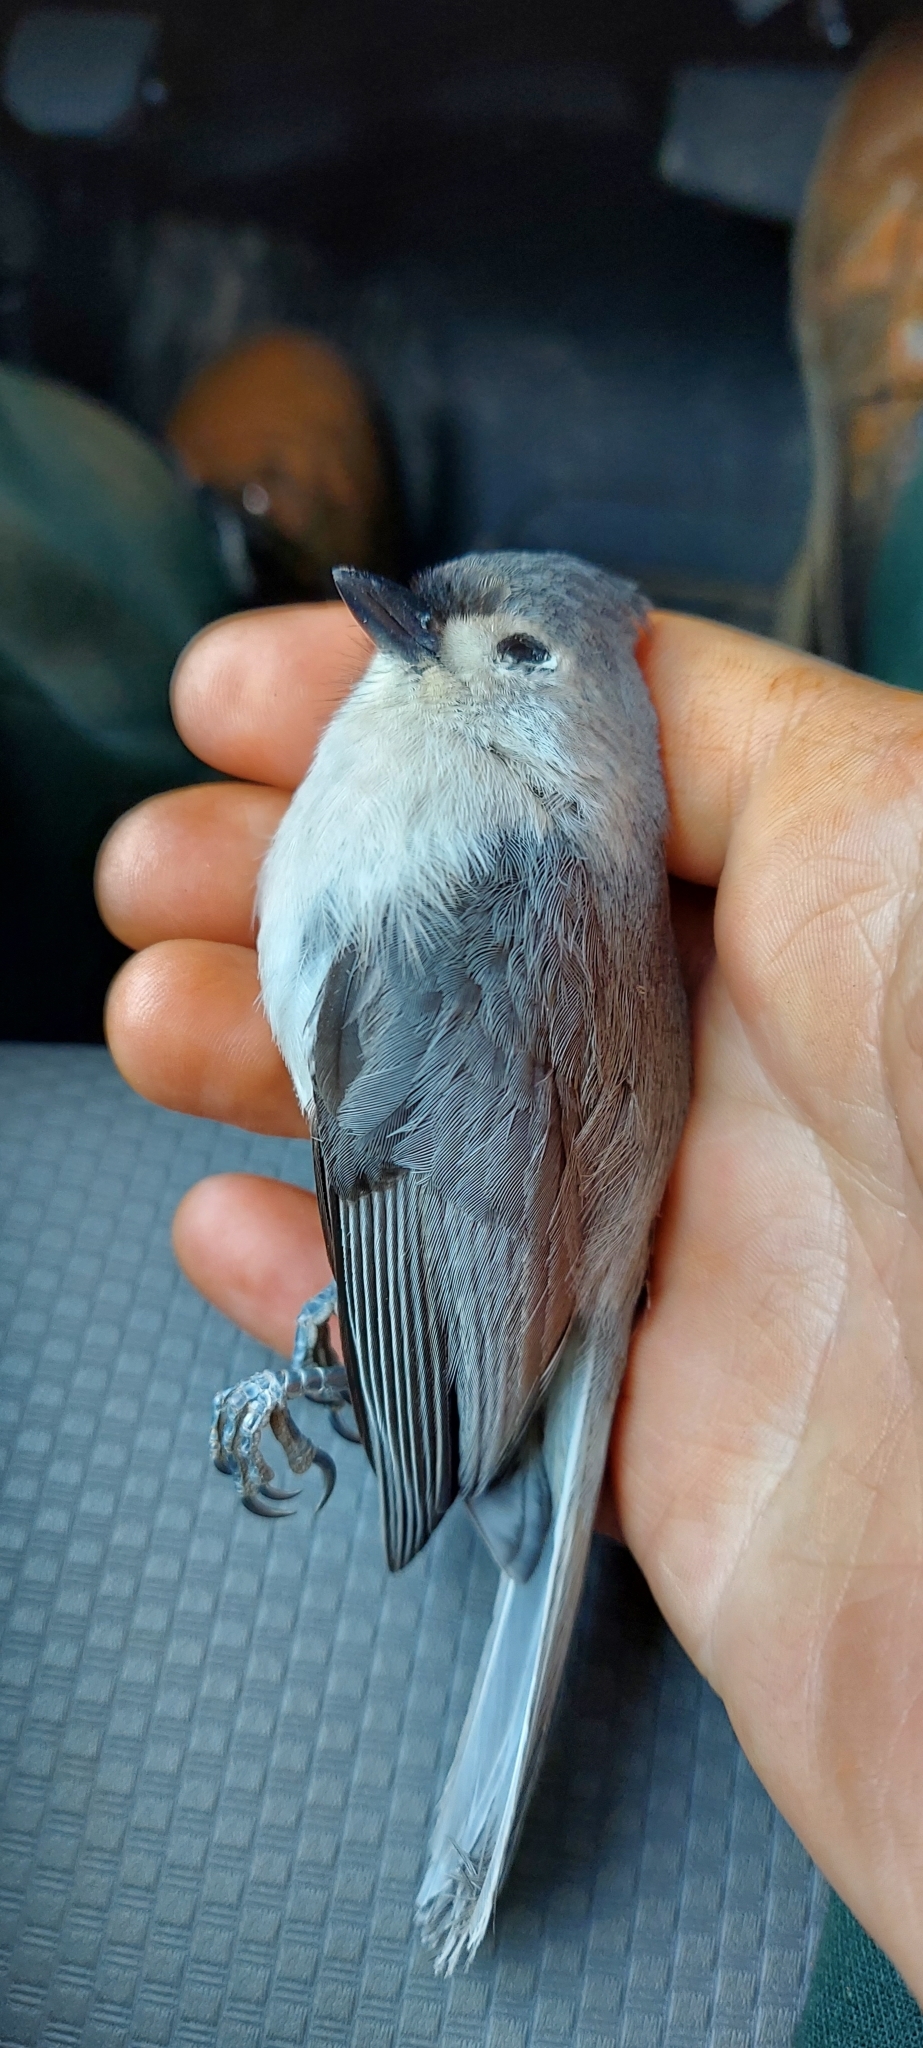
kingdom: Animalia
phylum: Chordata
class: Aves
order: Passeriformes
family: Paridae
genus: Baeolophus
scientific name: Baeolophus bicolor
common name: Tufted titmouse
